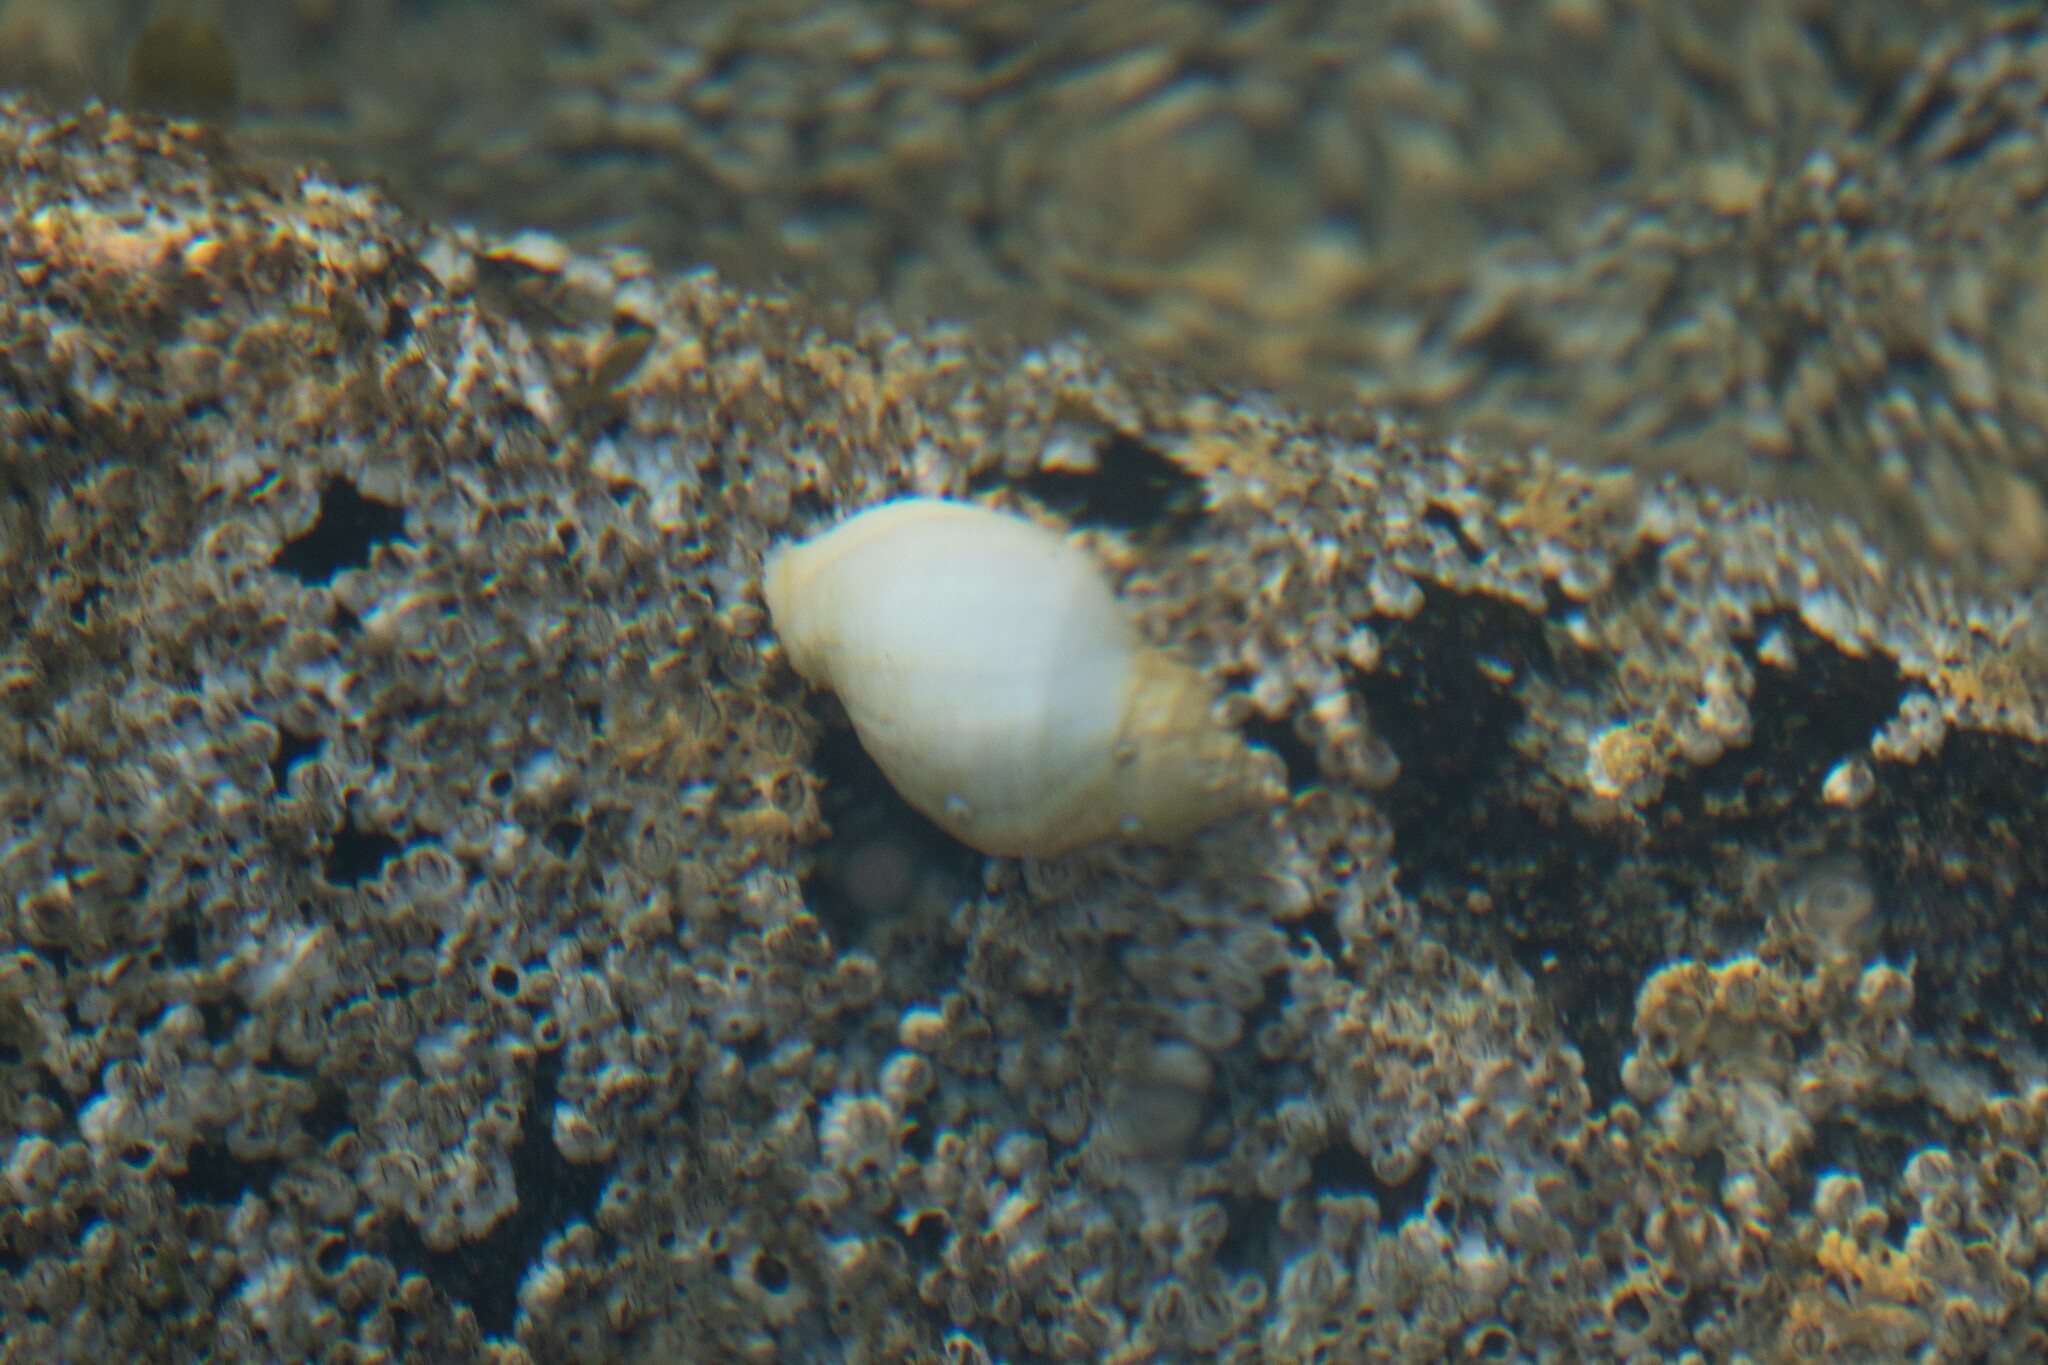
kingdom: Animalia
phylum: Mollusca
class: Gastropoda
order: Neogastropoda
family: Muricidae
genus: Nucella
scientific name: Nucella lapillus
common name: Dog whelk
